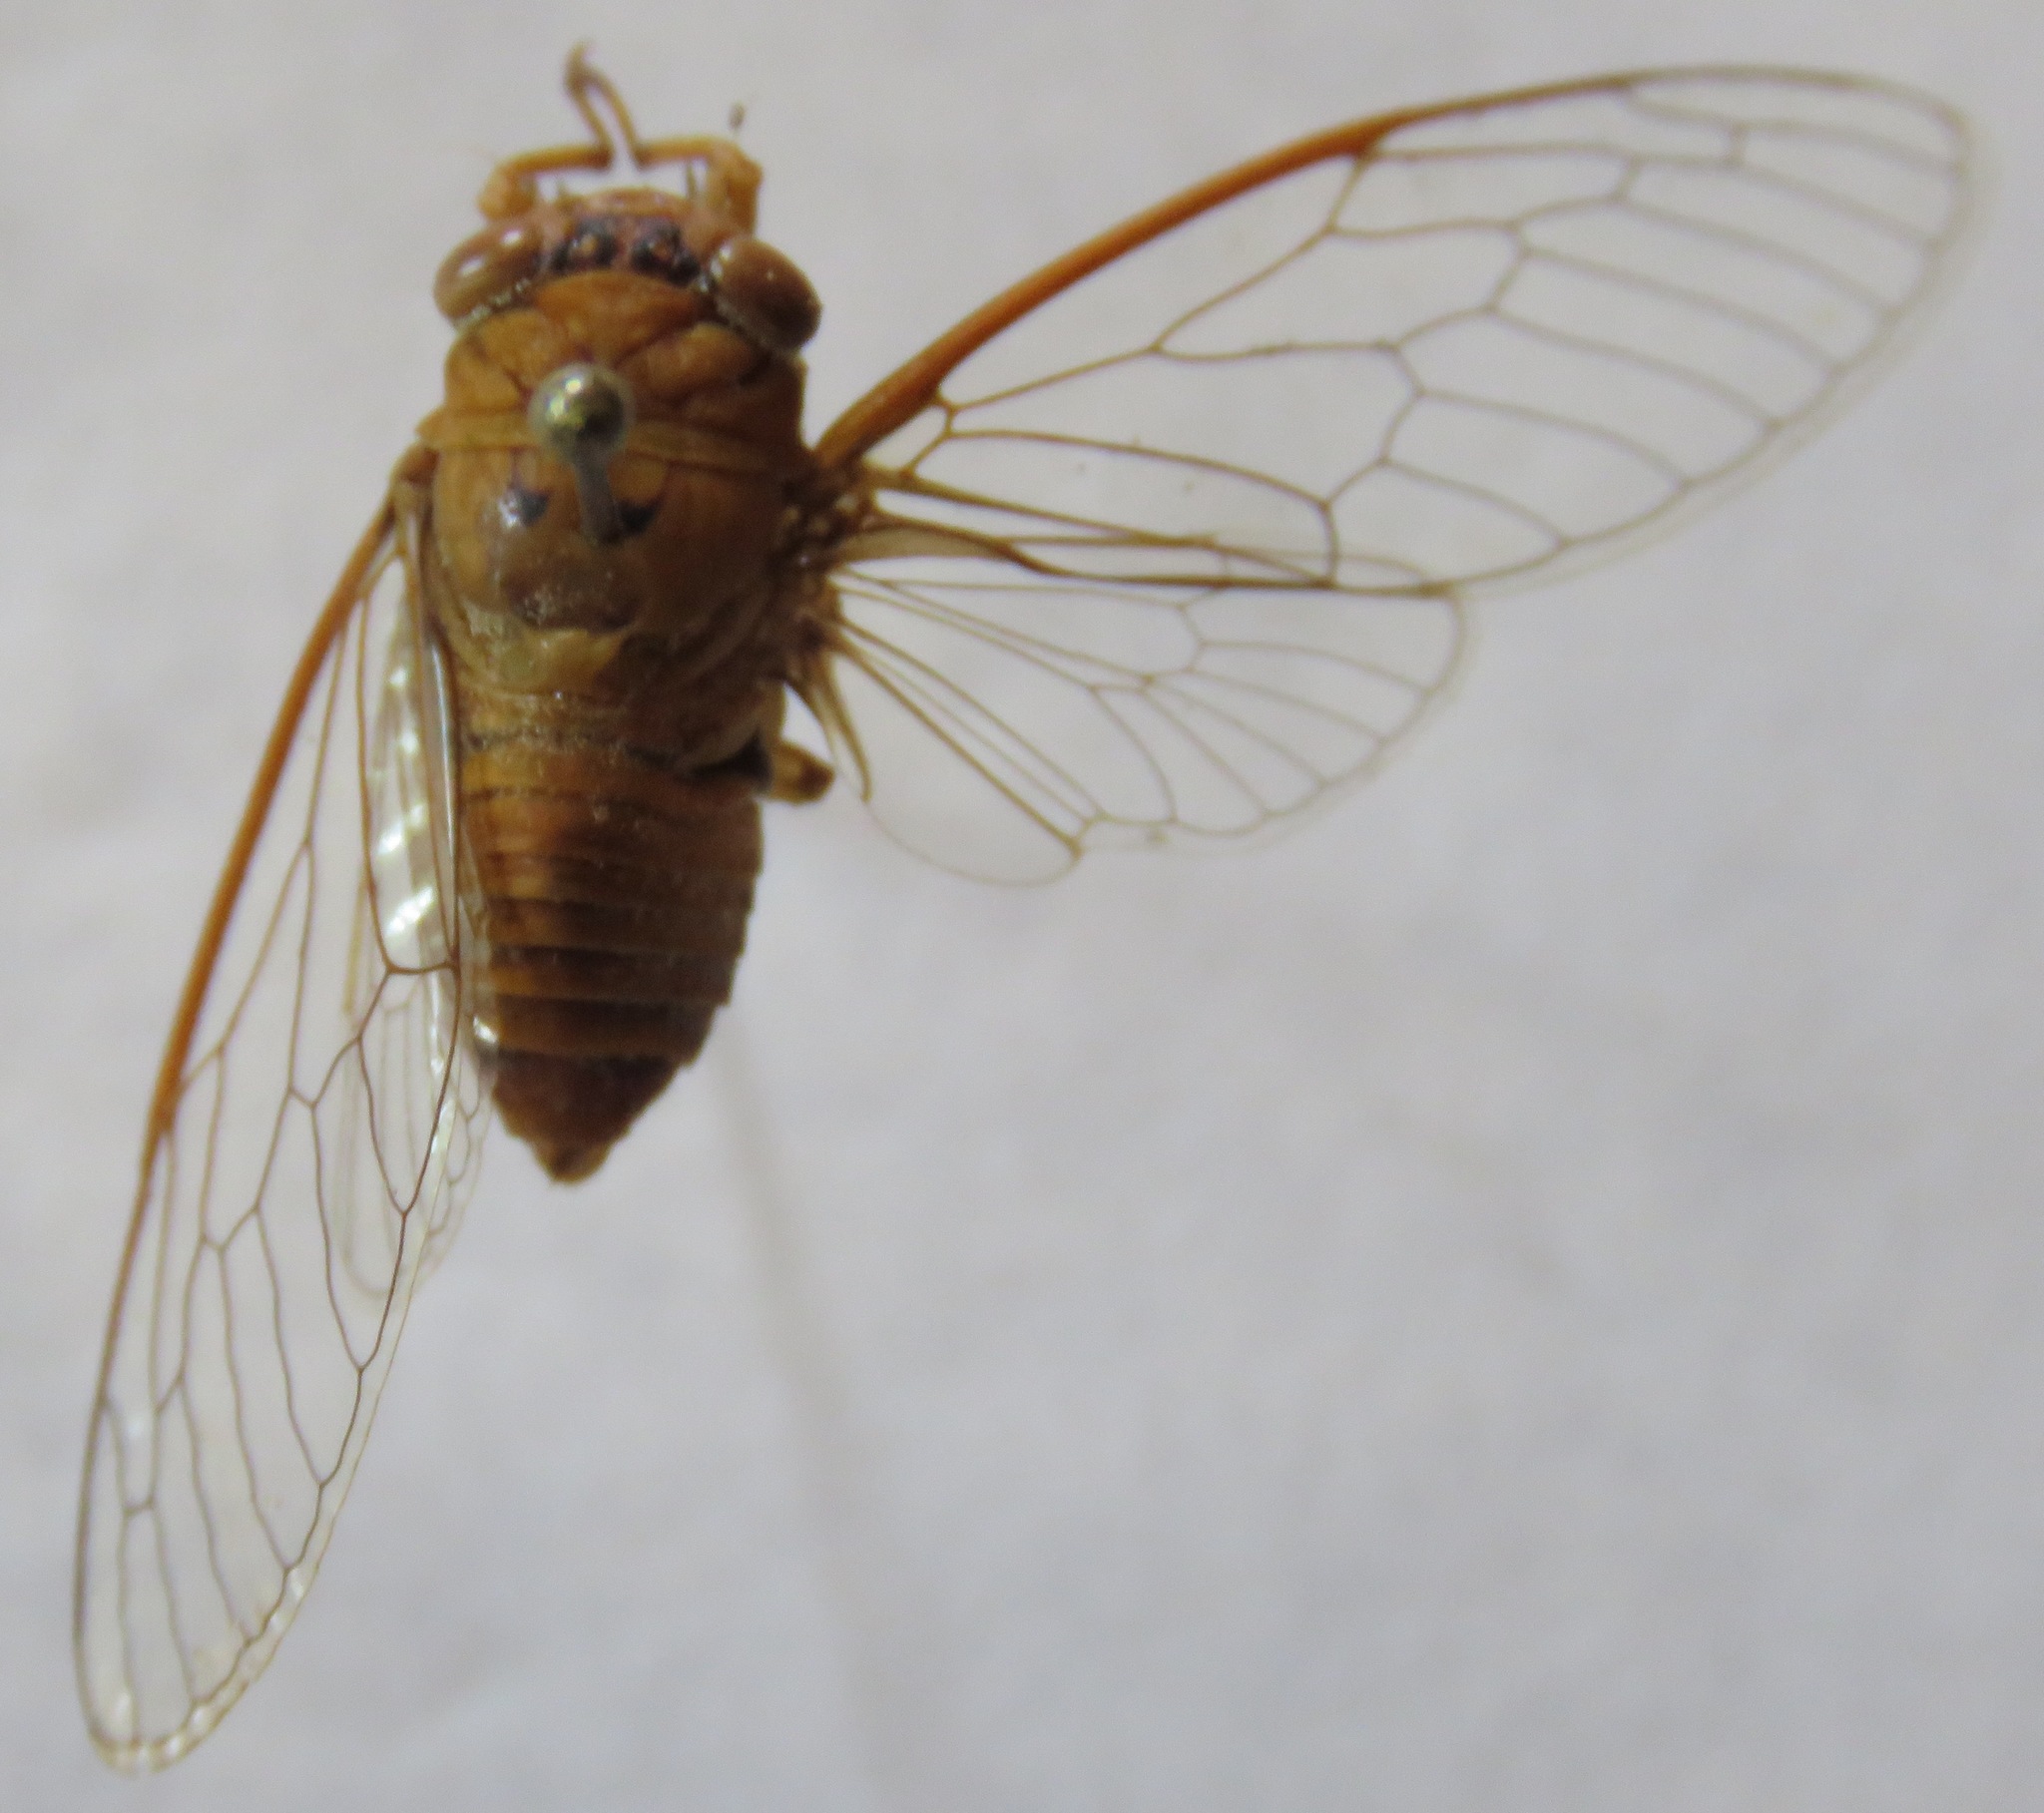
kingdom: Animalia
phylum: Arthropoda
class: Insecta
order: Hemiptera
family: Cicadidae
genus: Herrera
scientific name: Herrera coyamensis
